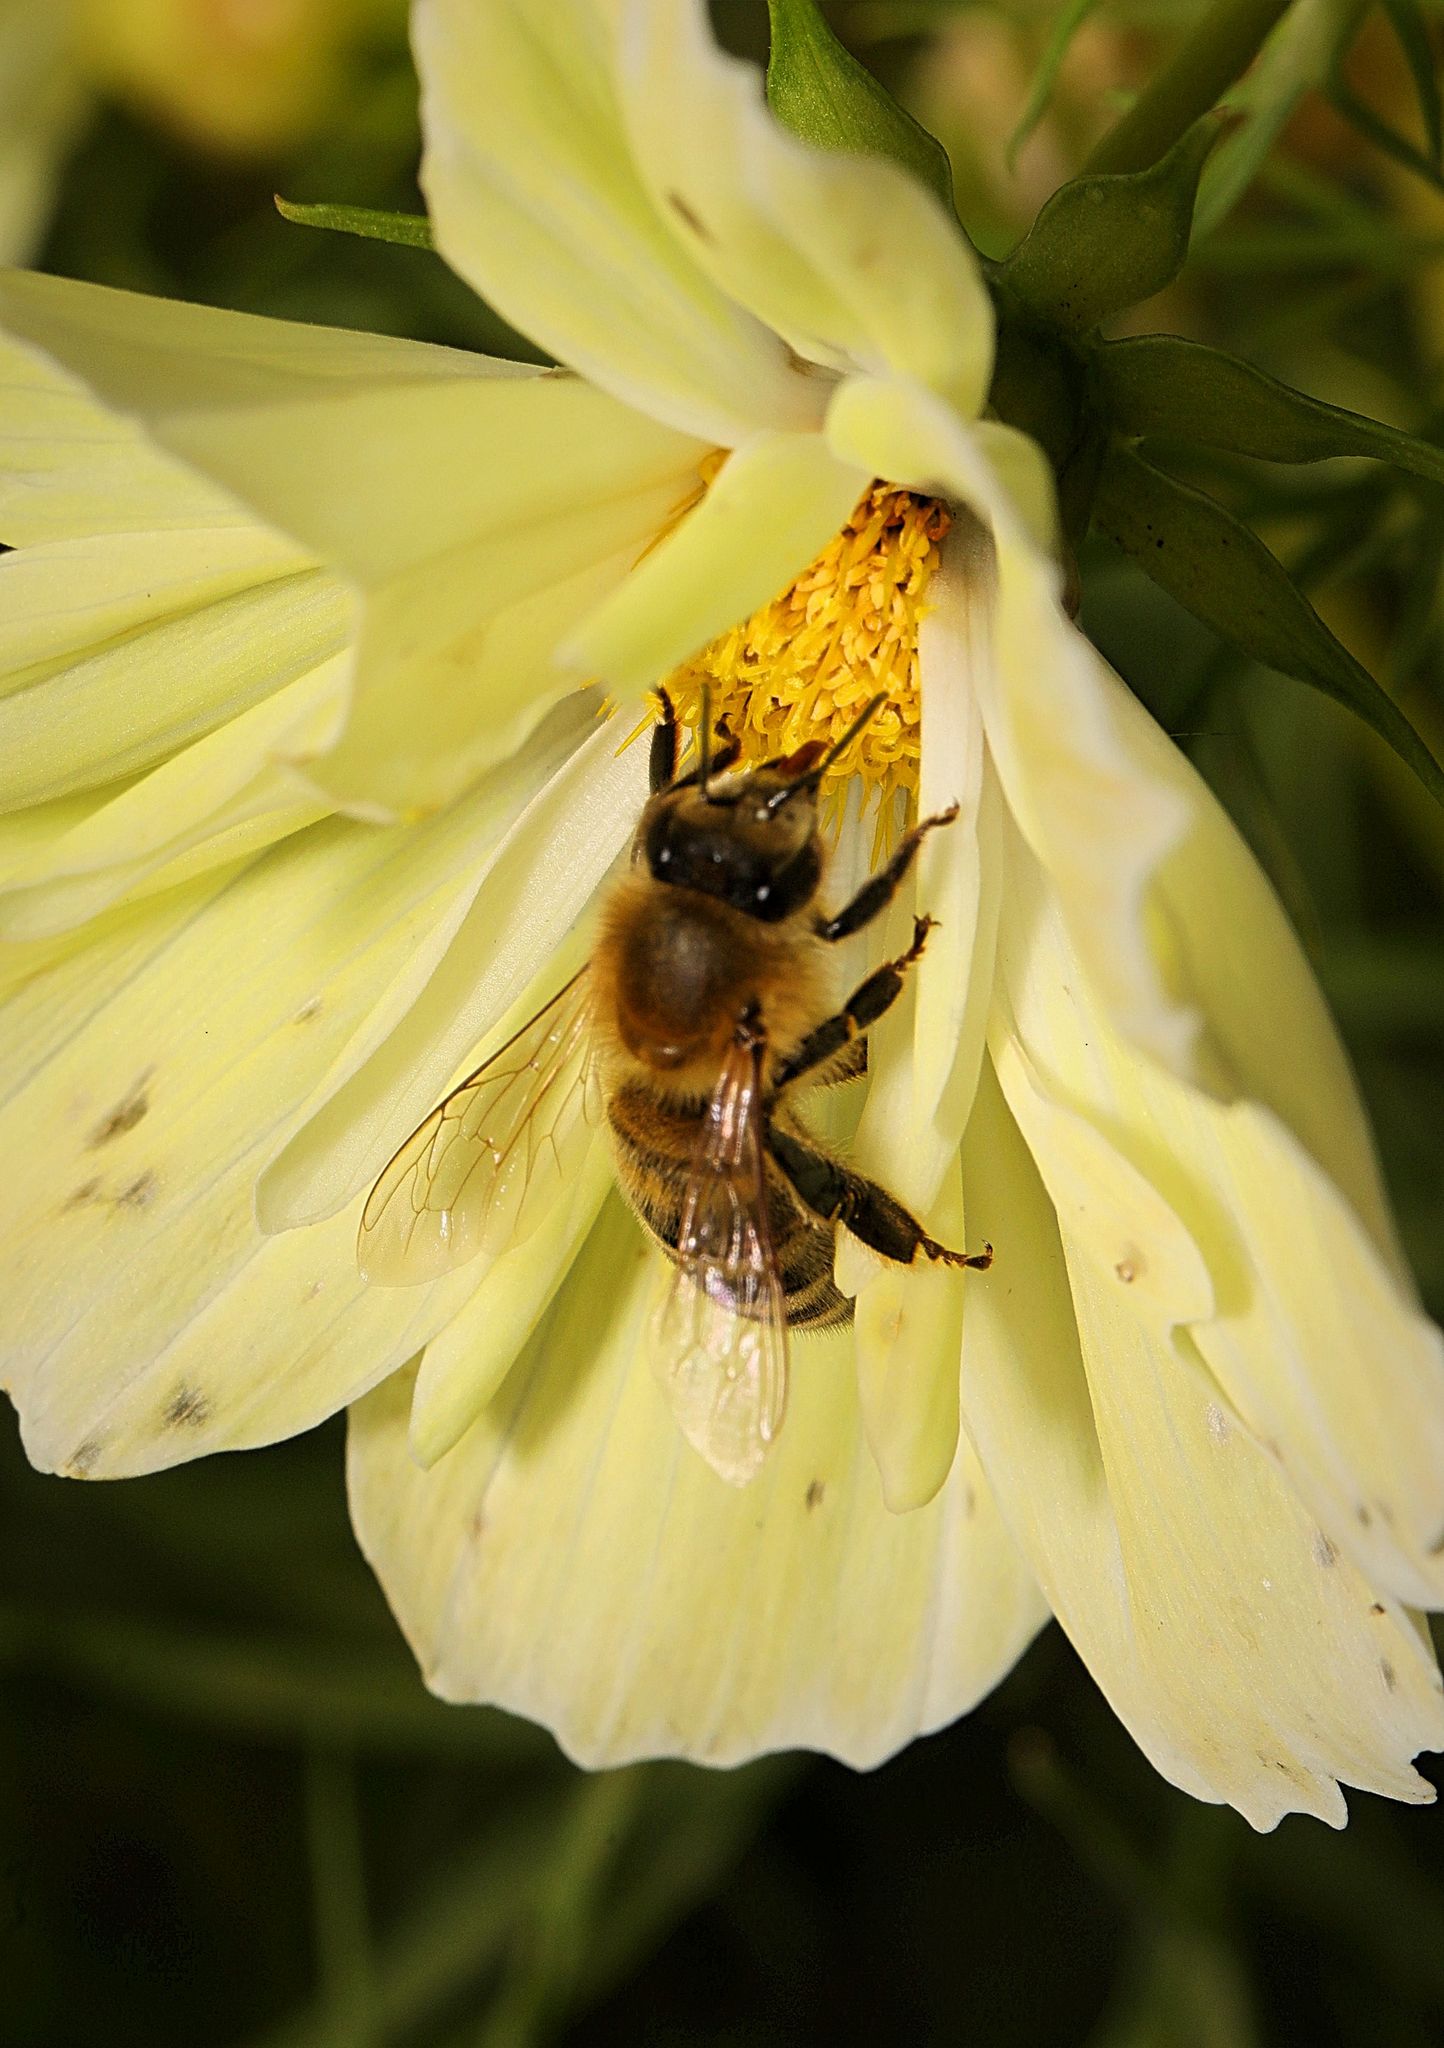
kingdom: Animalia
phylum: Arthropoda
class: Insecta
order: Hymenoptera
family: Apidae
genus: Apis
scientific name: Apis mellifera
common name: Honey bee
